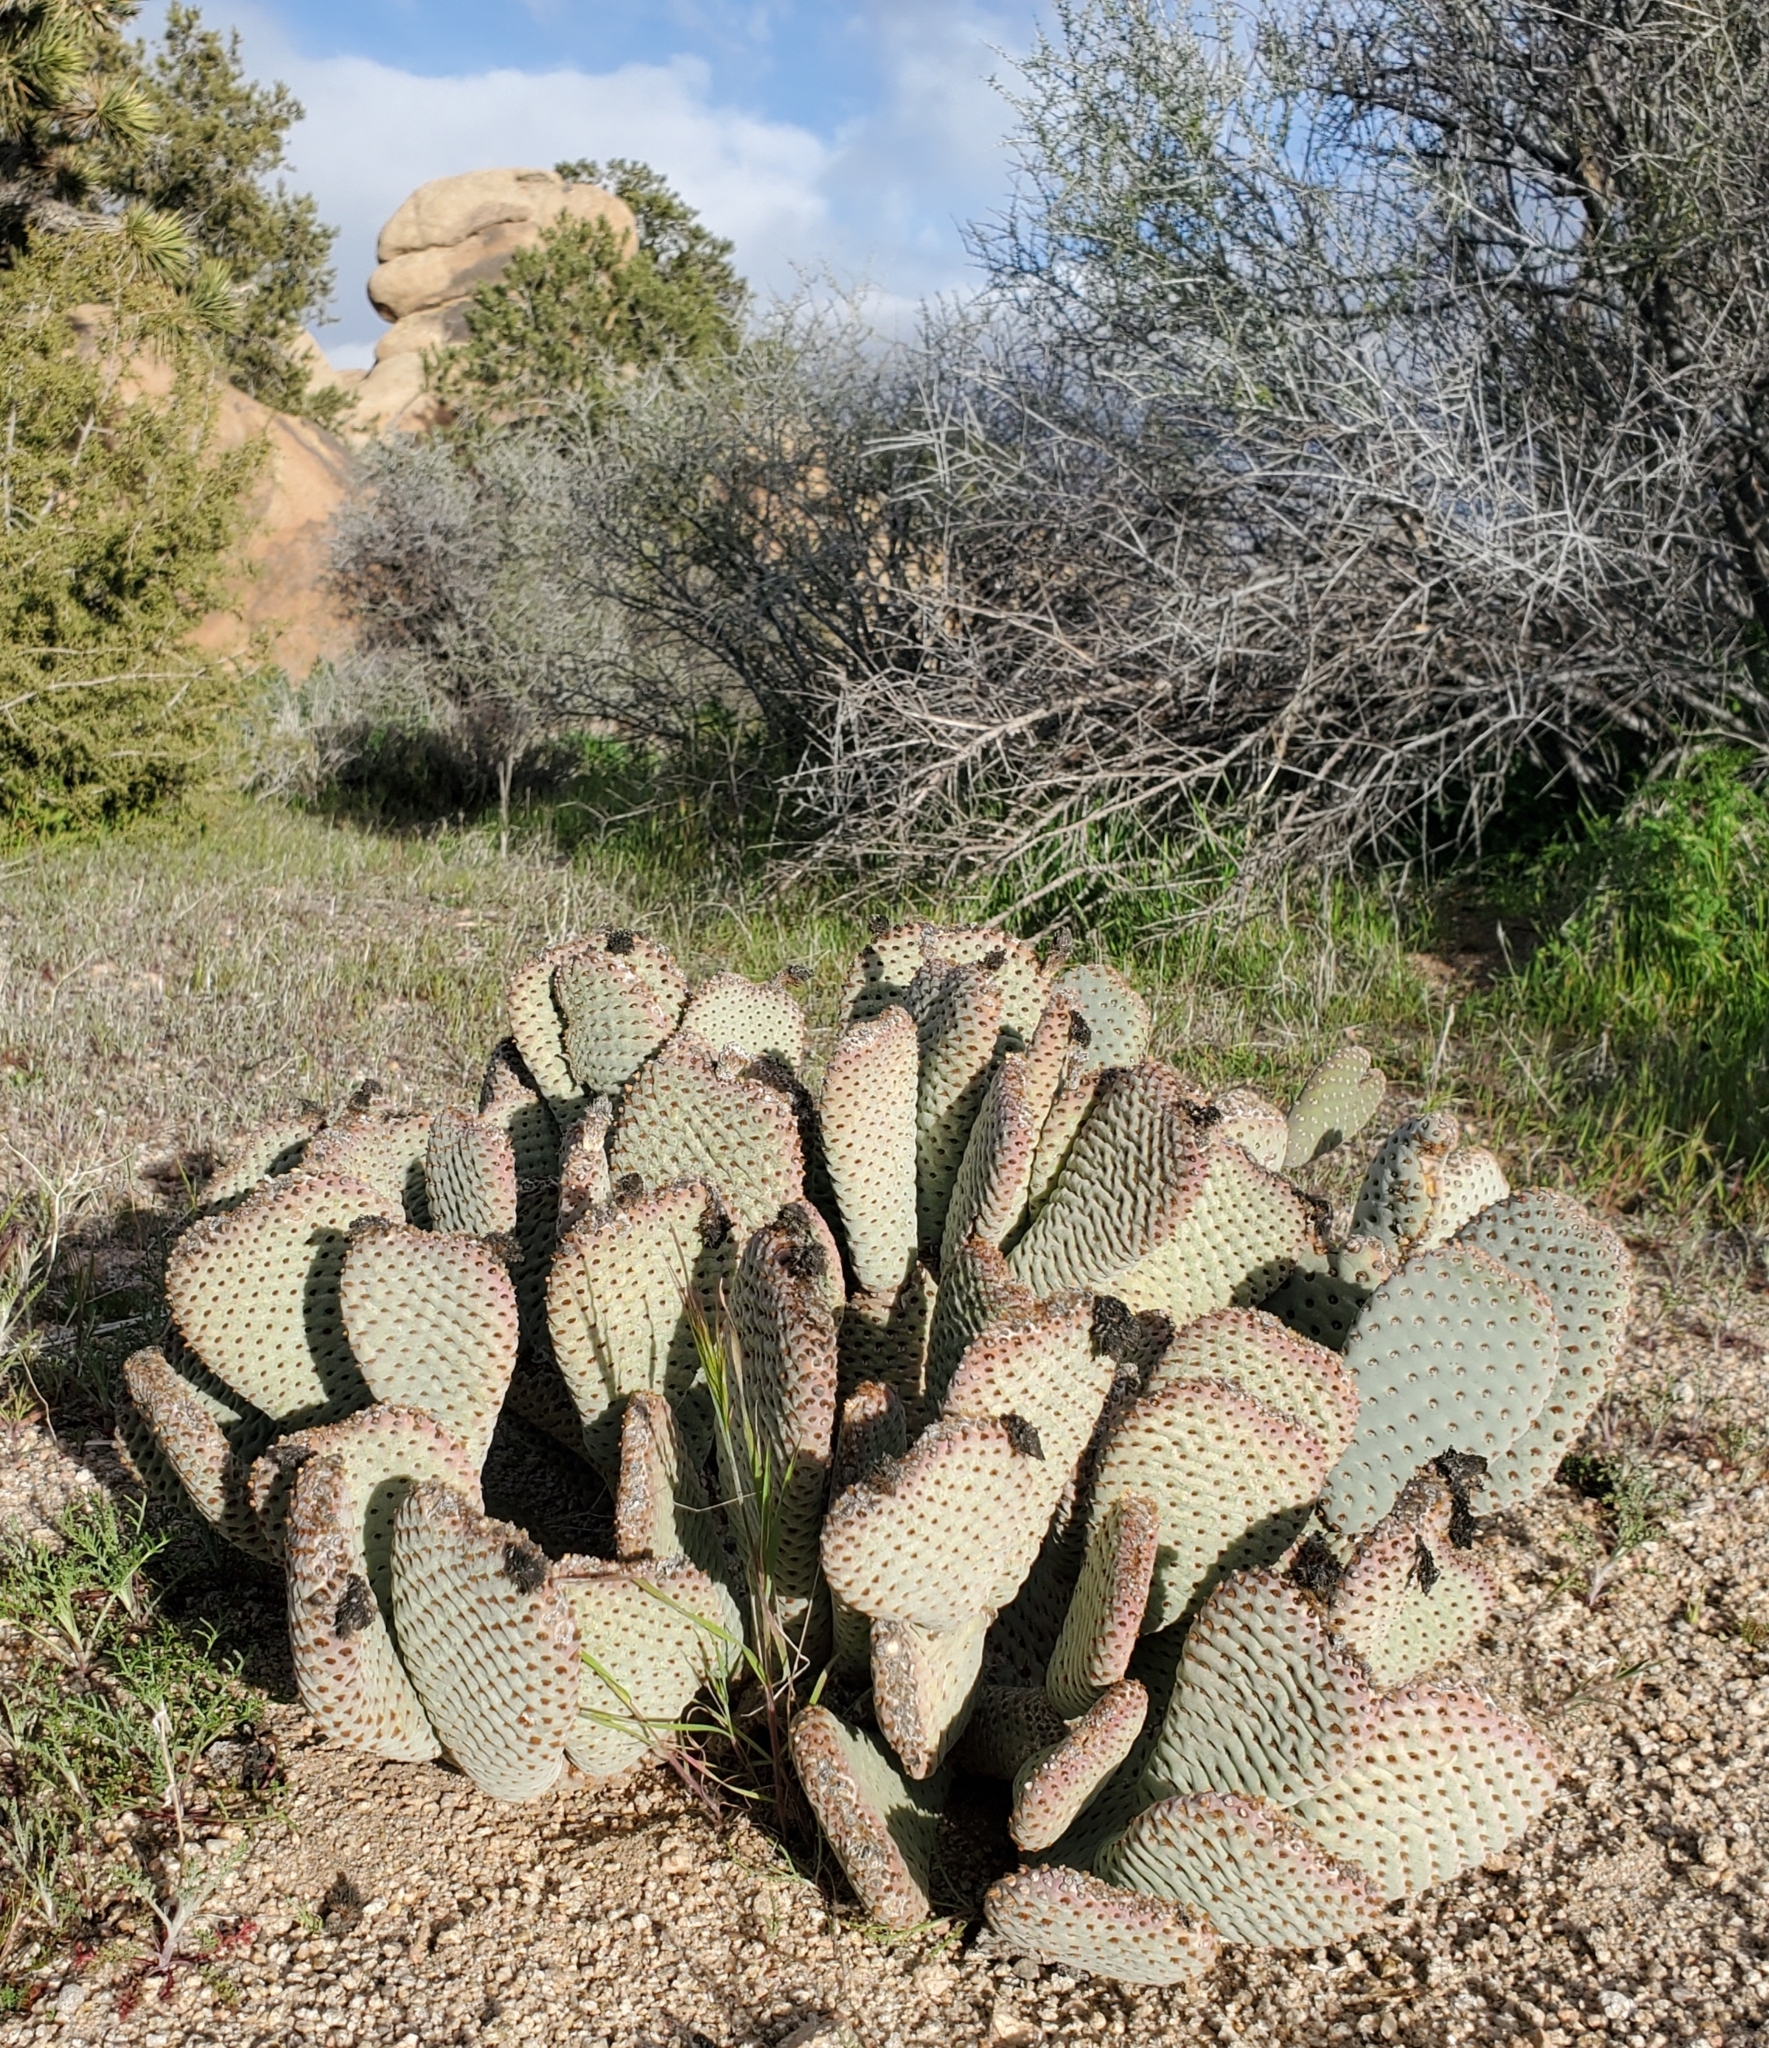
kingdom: Plantae
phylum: Tracheophyta
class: Magnoliopsida
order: Caryophyllales
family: Cactaceae
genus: Opuntia
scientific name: Opuntia basilaris
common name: Beavertail prickly-pear
